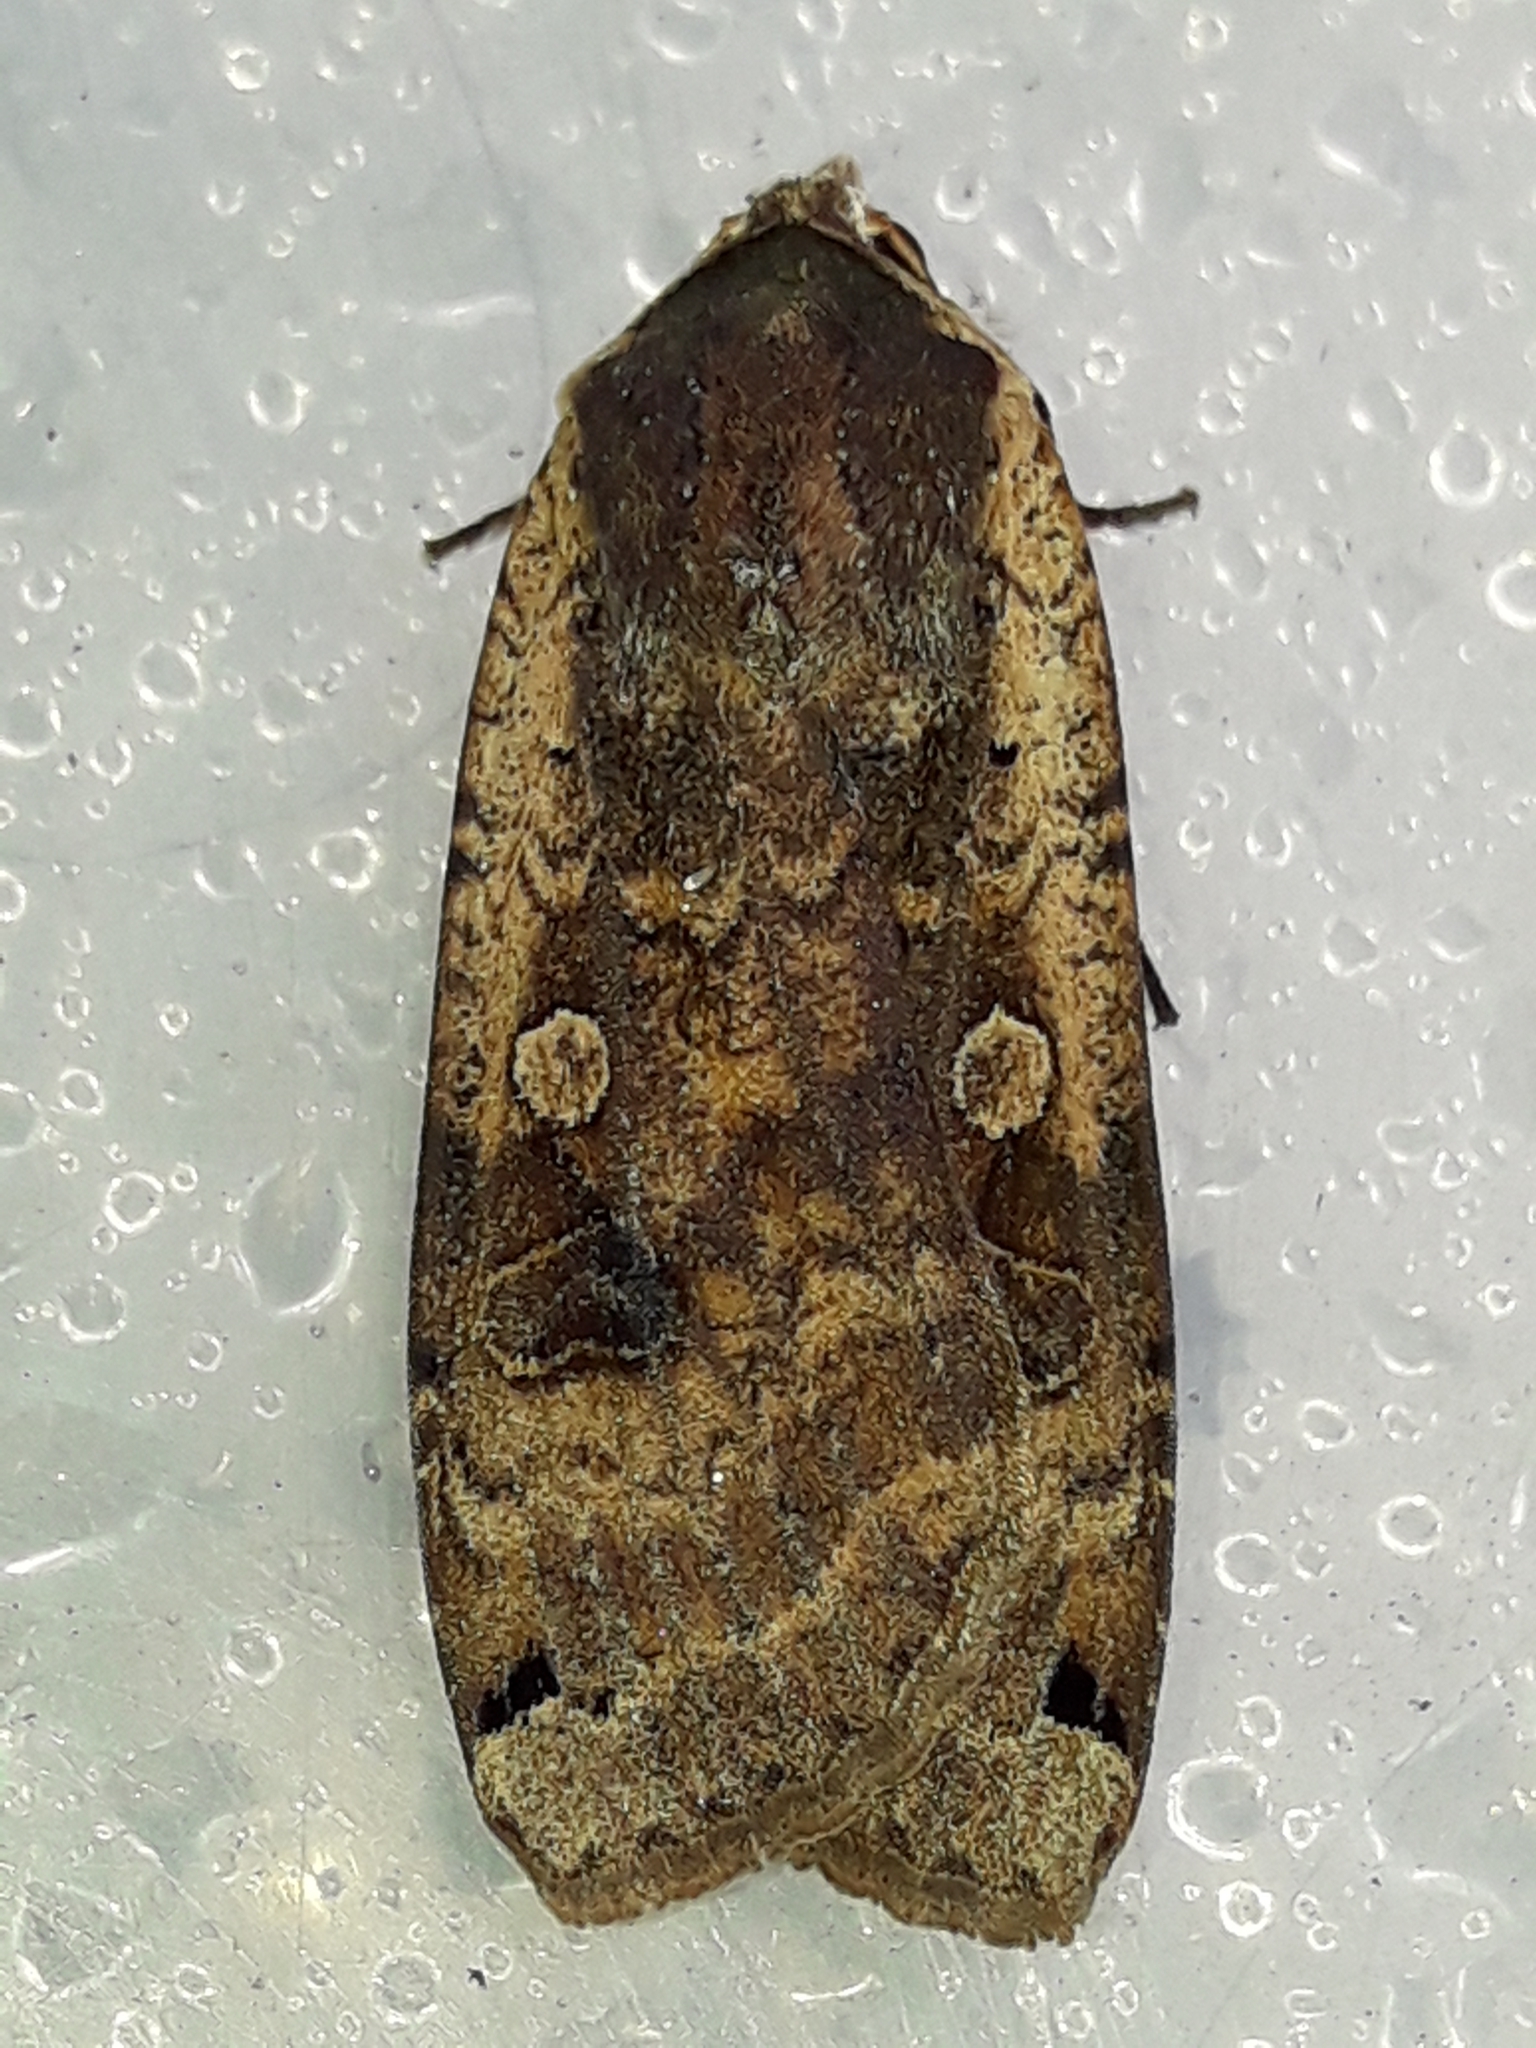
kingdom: Animalia
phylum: Arthropoda
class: Insecta
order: Lepidoptera
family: Noctuidae
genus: Noctua
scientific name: Noctua pronuba
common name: Large yellow underwing
